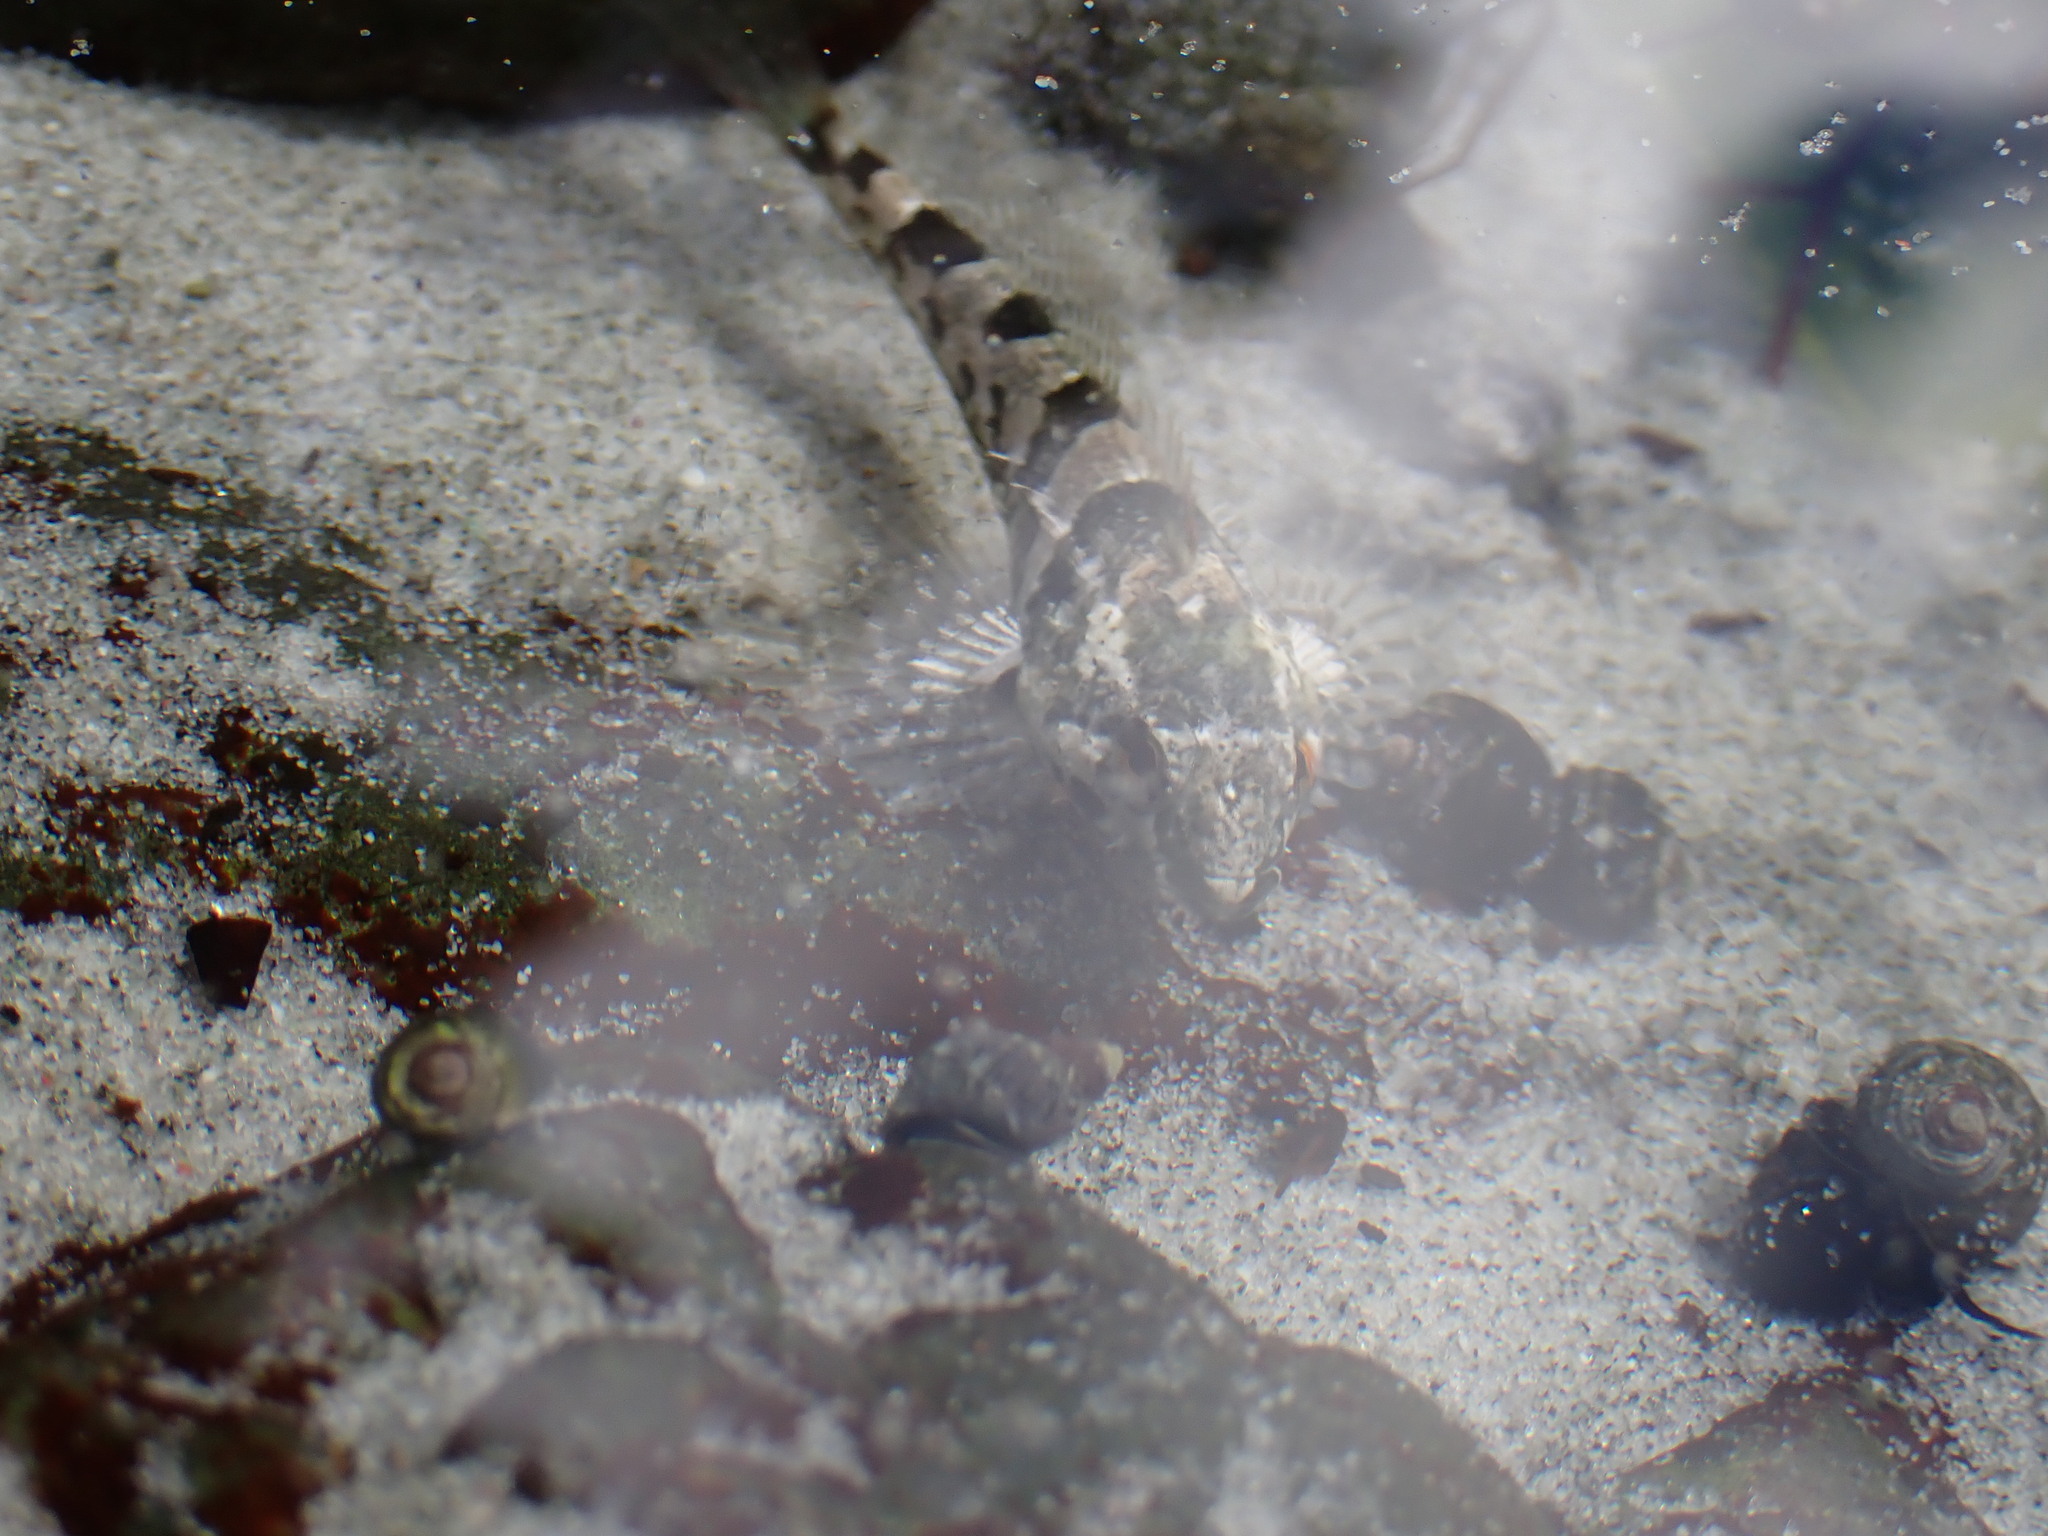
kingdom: Animalia
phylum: Chordata
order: Scorpaeniformes
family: Cottidae
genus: Oligocottus
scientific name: Oligocottus maculosus
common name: Tidepool sculpin
